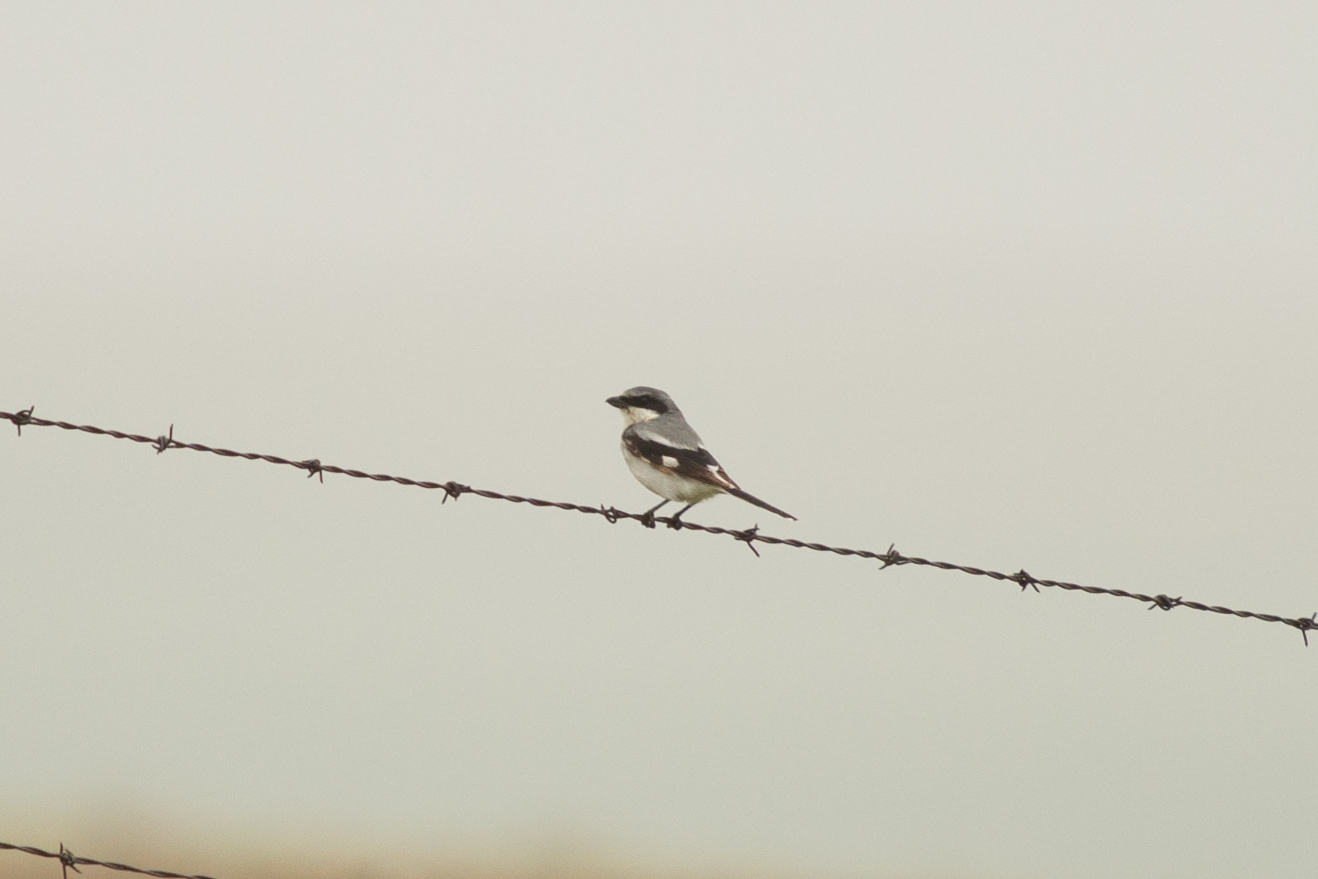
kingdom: Animalia
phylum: Chordata
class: Aves
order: Passeriformes
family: Laniidae
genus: Lanius
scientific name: Lanius ludovicianus
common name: Loggerhead shrike
